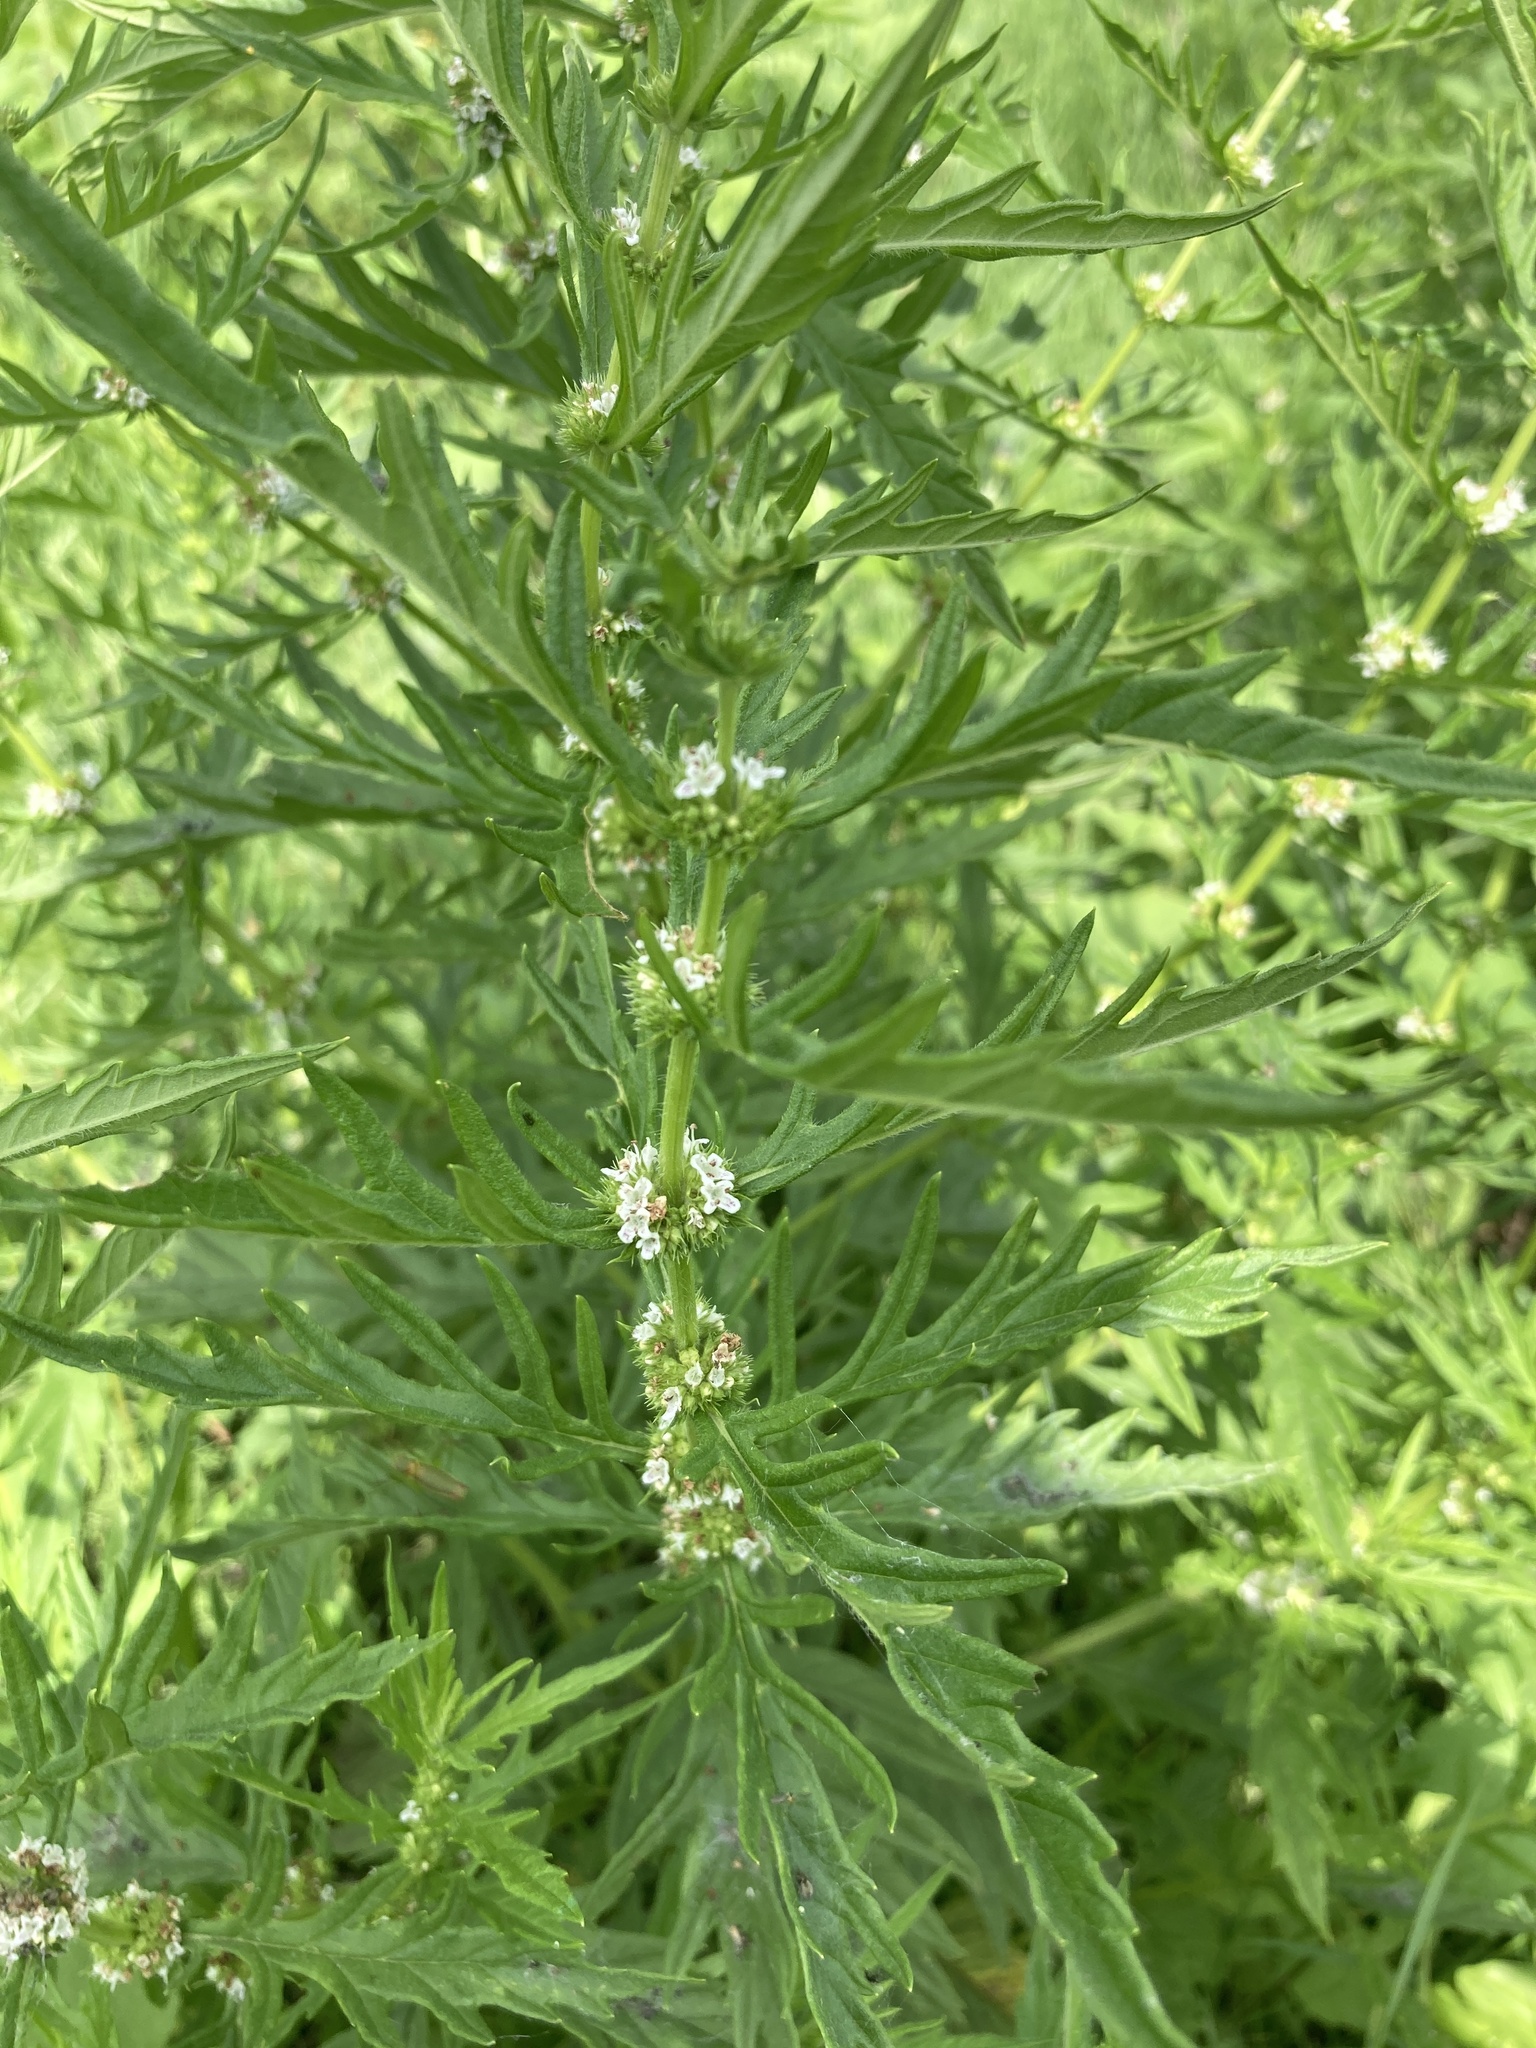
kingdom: Plantae
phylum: Tracheophyta
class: Magnoliopsida
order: Lamiales
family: Lamiaceae
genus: Lycopus
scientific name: Lycopus exaltatus
